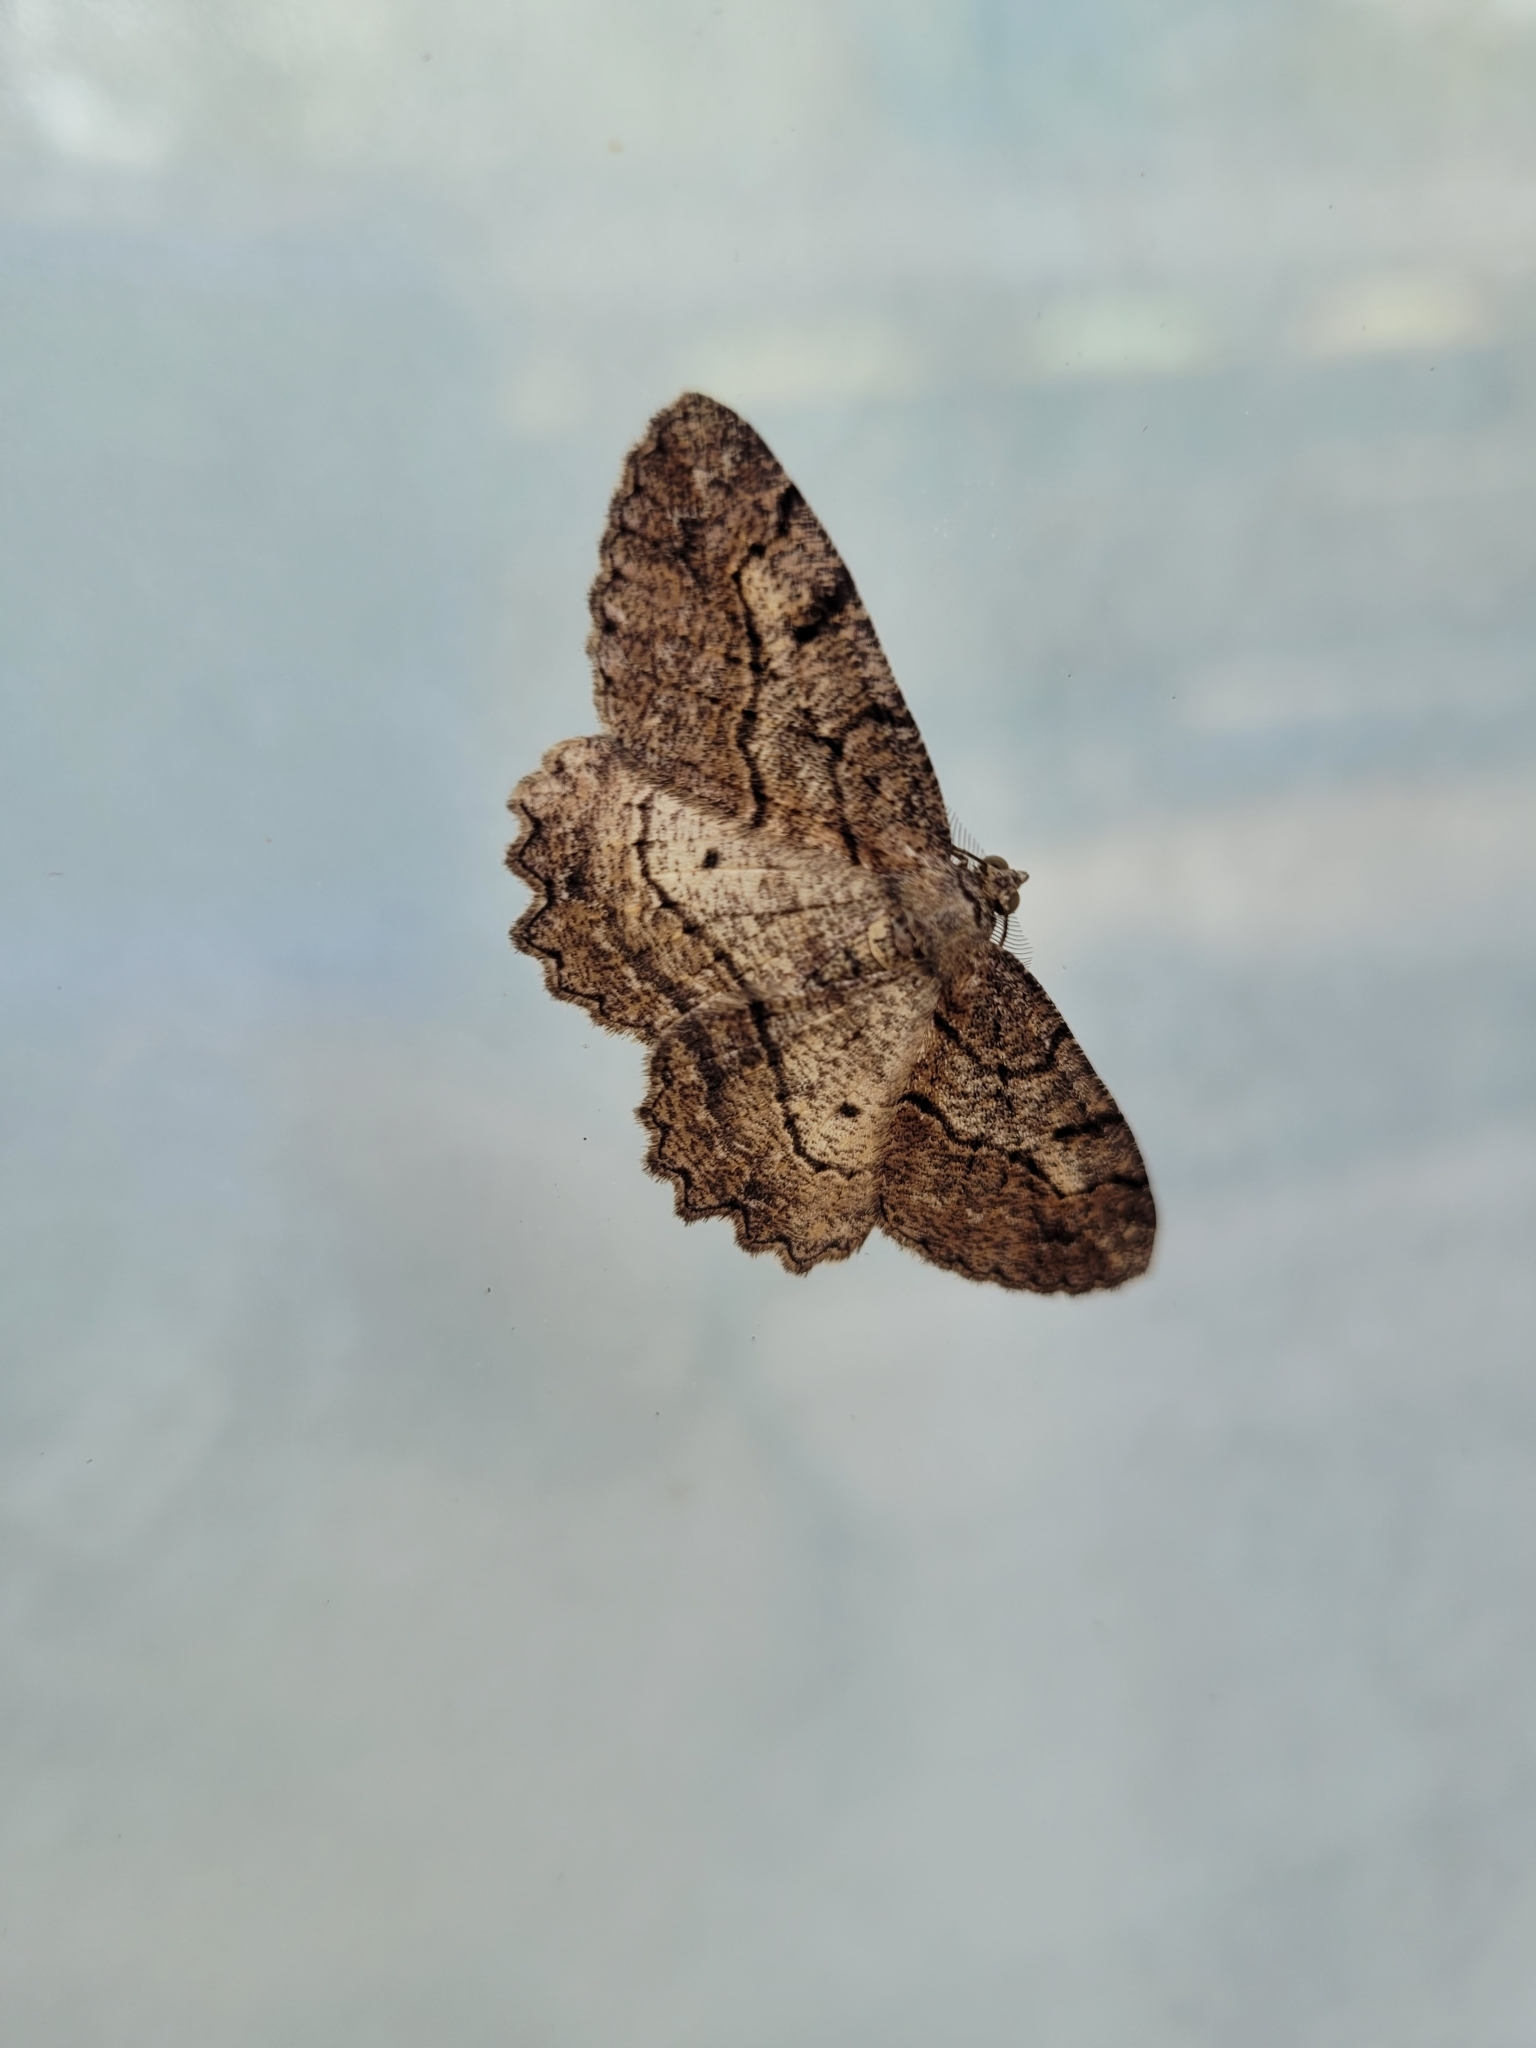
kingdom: Animalia
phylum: Arthropoda
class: Insecta
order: Lepidoptera
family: Geometridae
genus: Neoalcis
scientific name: Neoalcis californiaria
